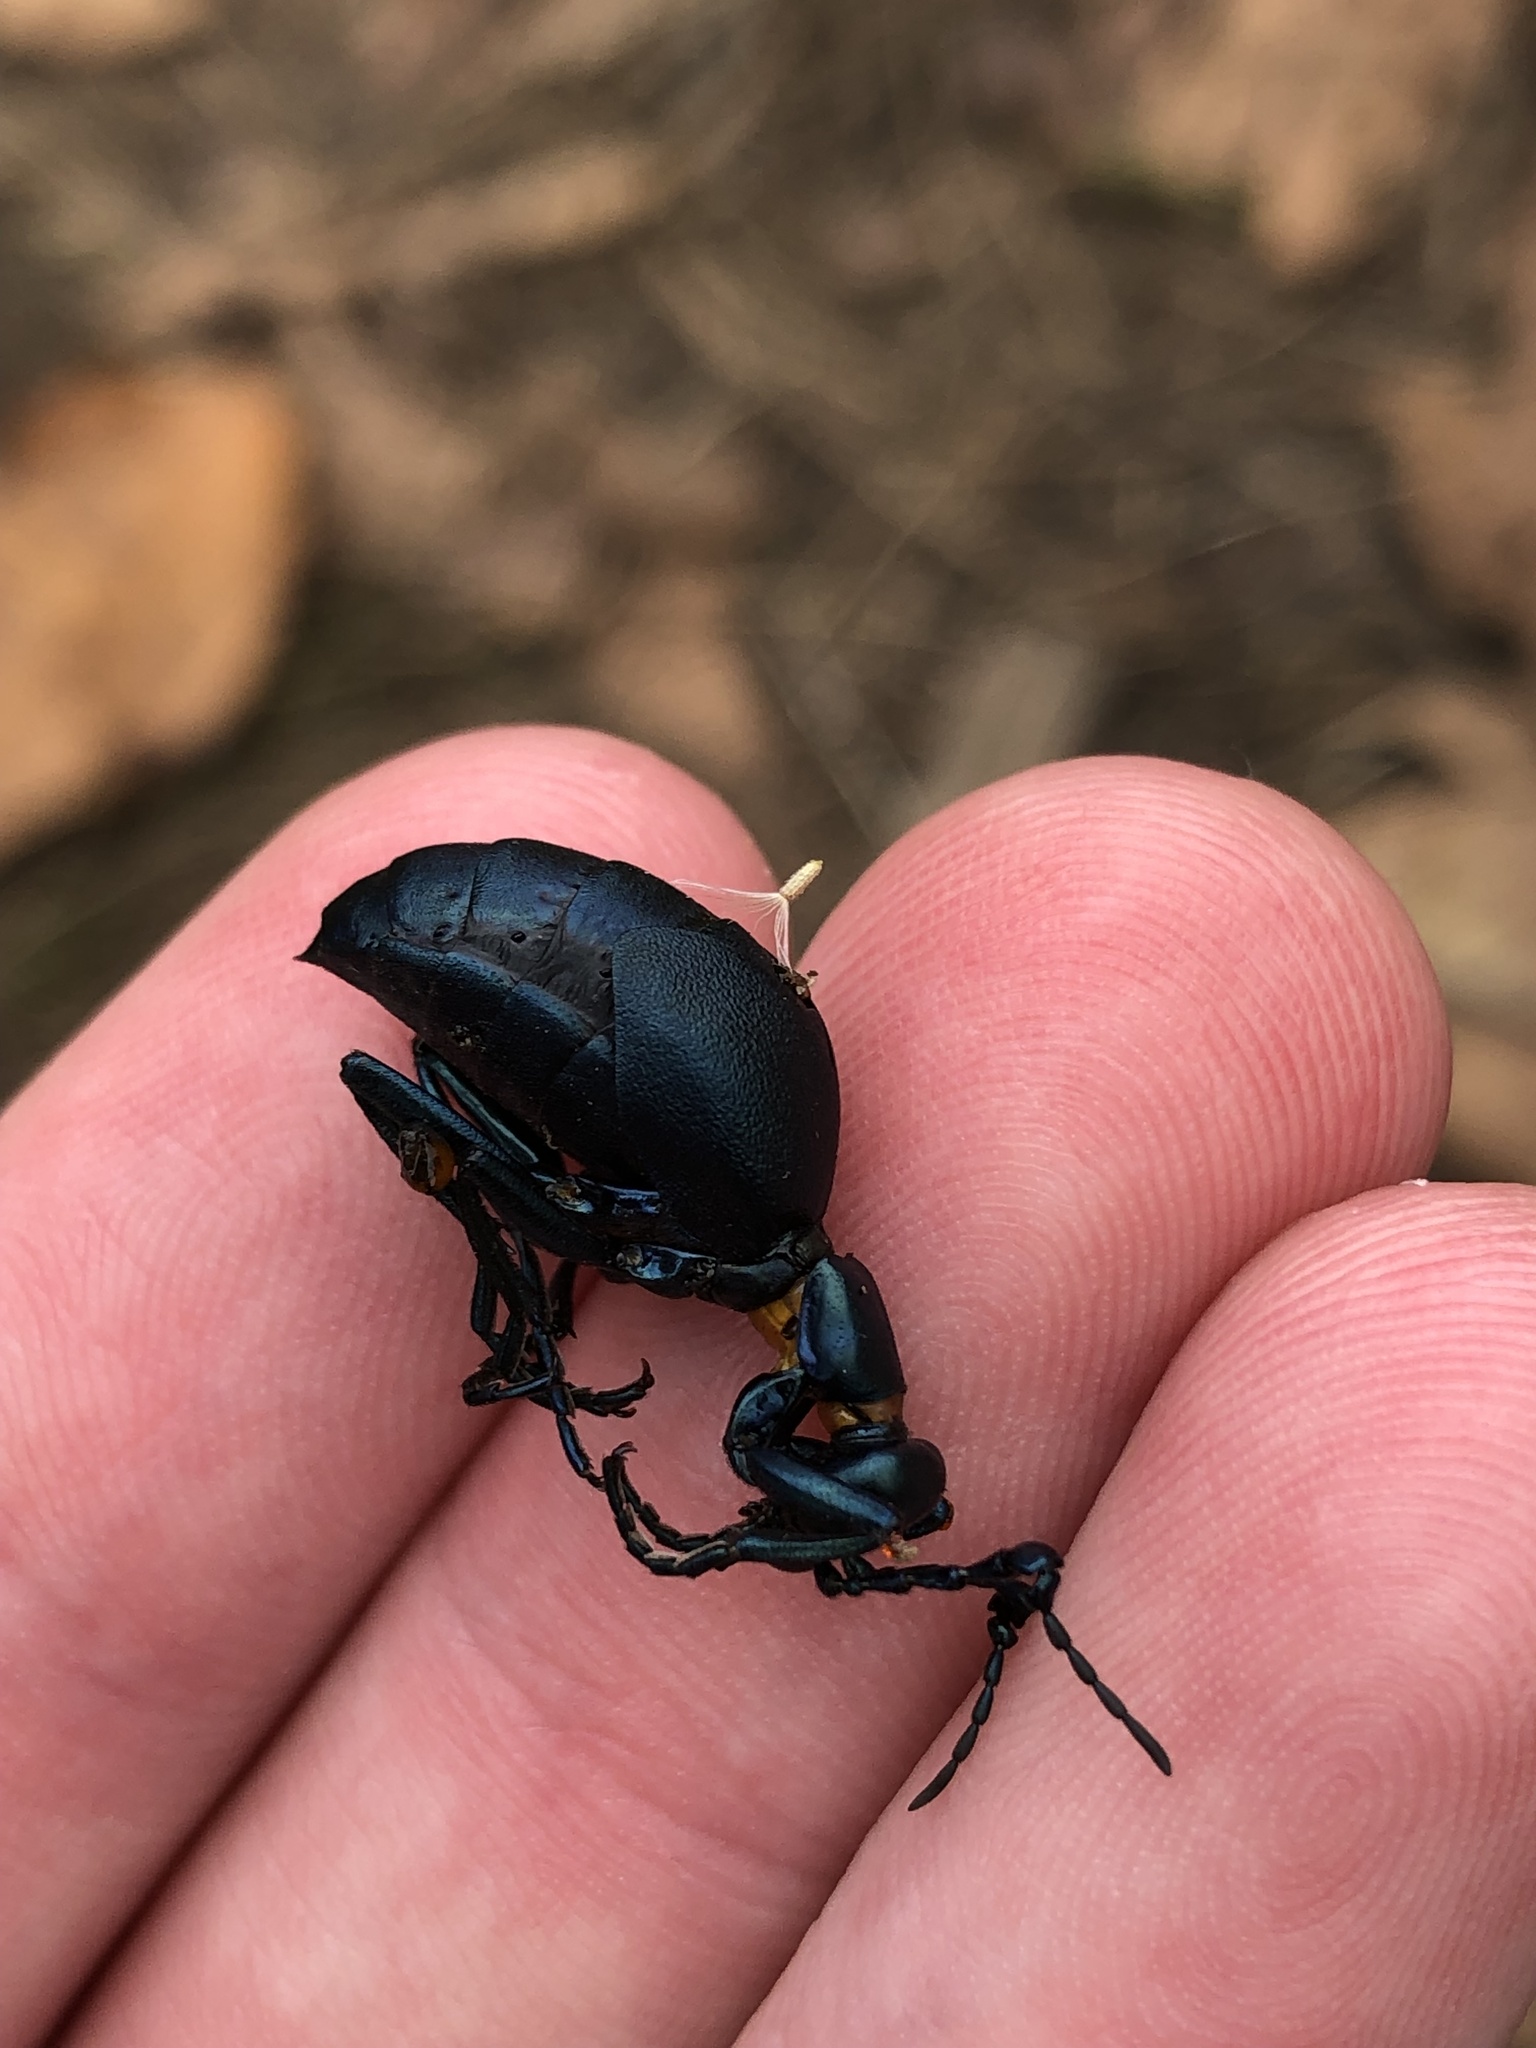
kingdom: Animalia
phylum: Arthropoda
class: Insecta
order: Coleoptera
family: Meloidae
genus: Meloe
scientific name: Meloe impressus
